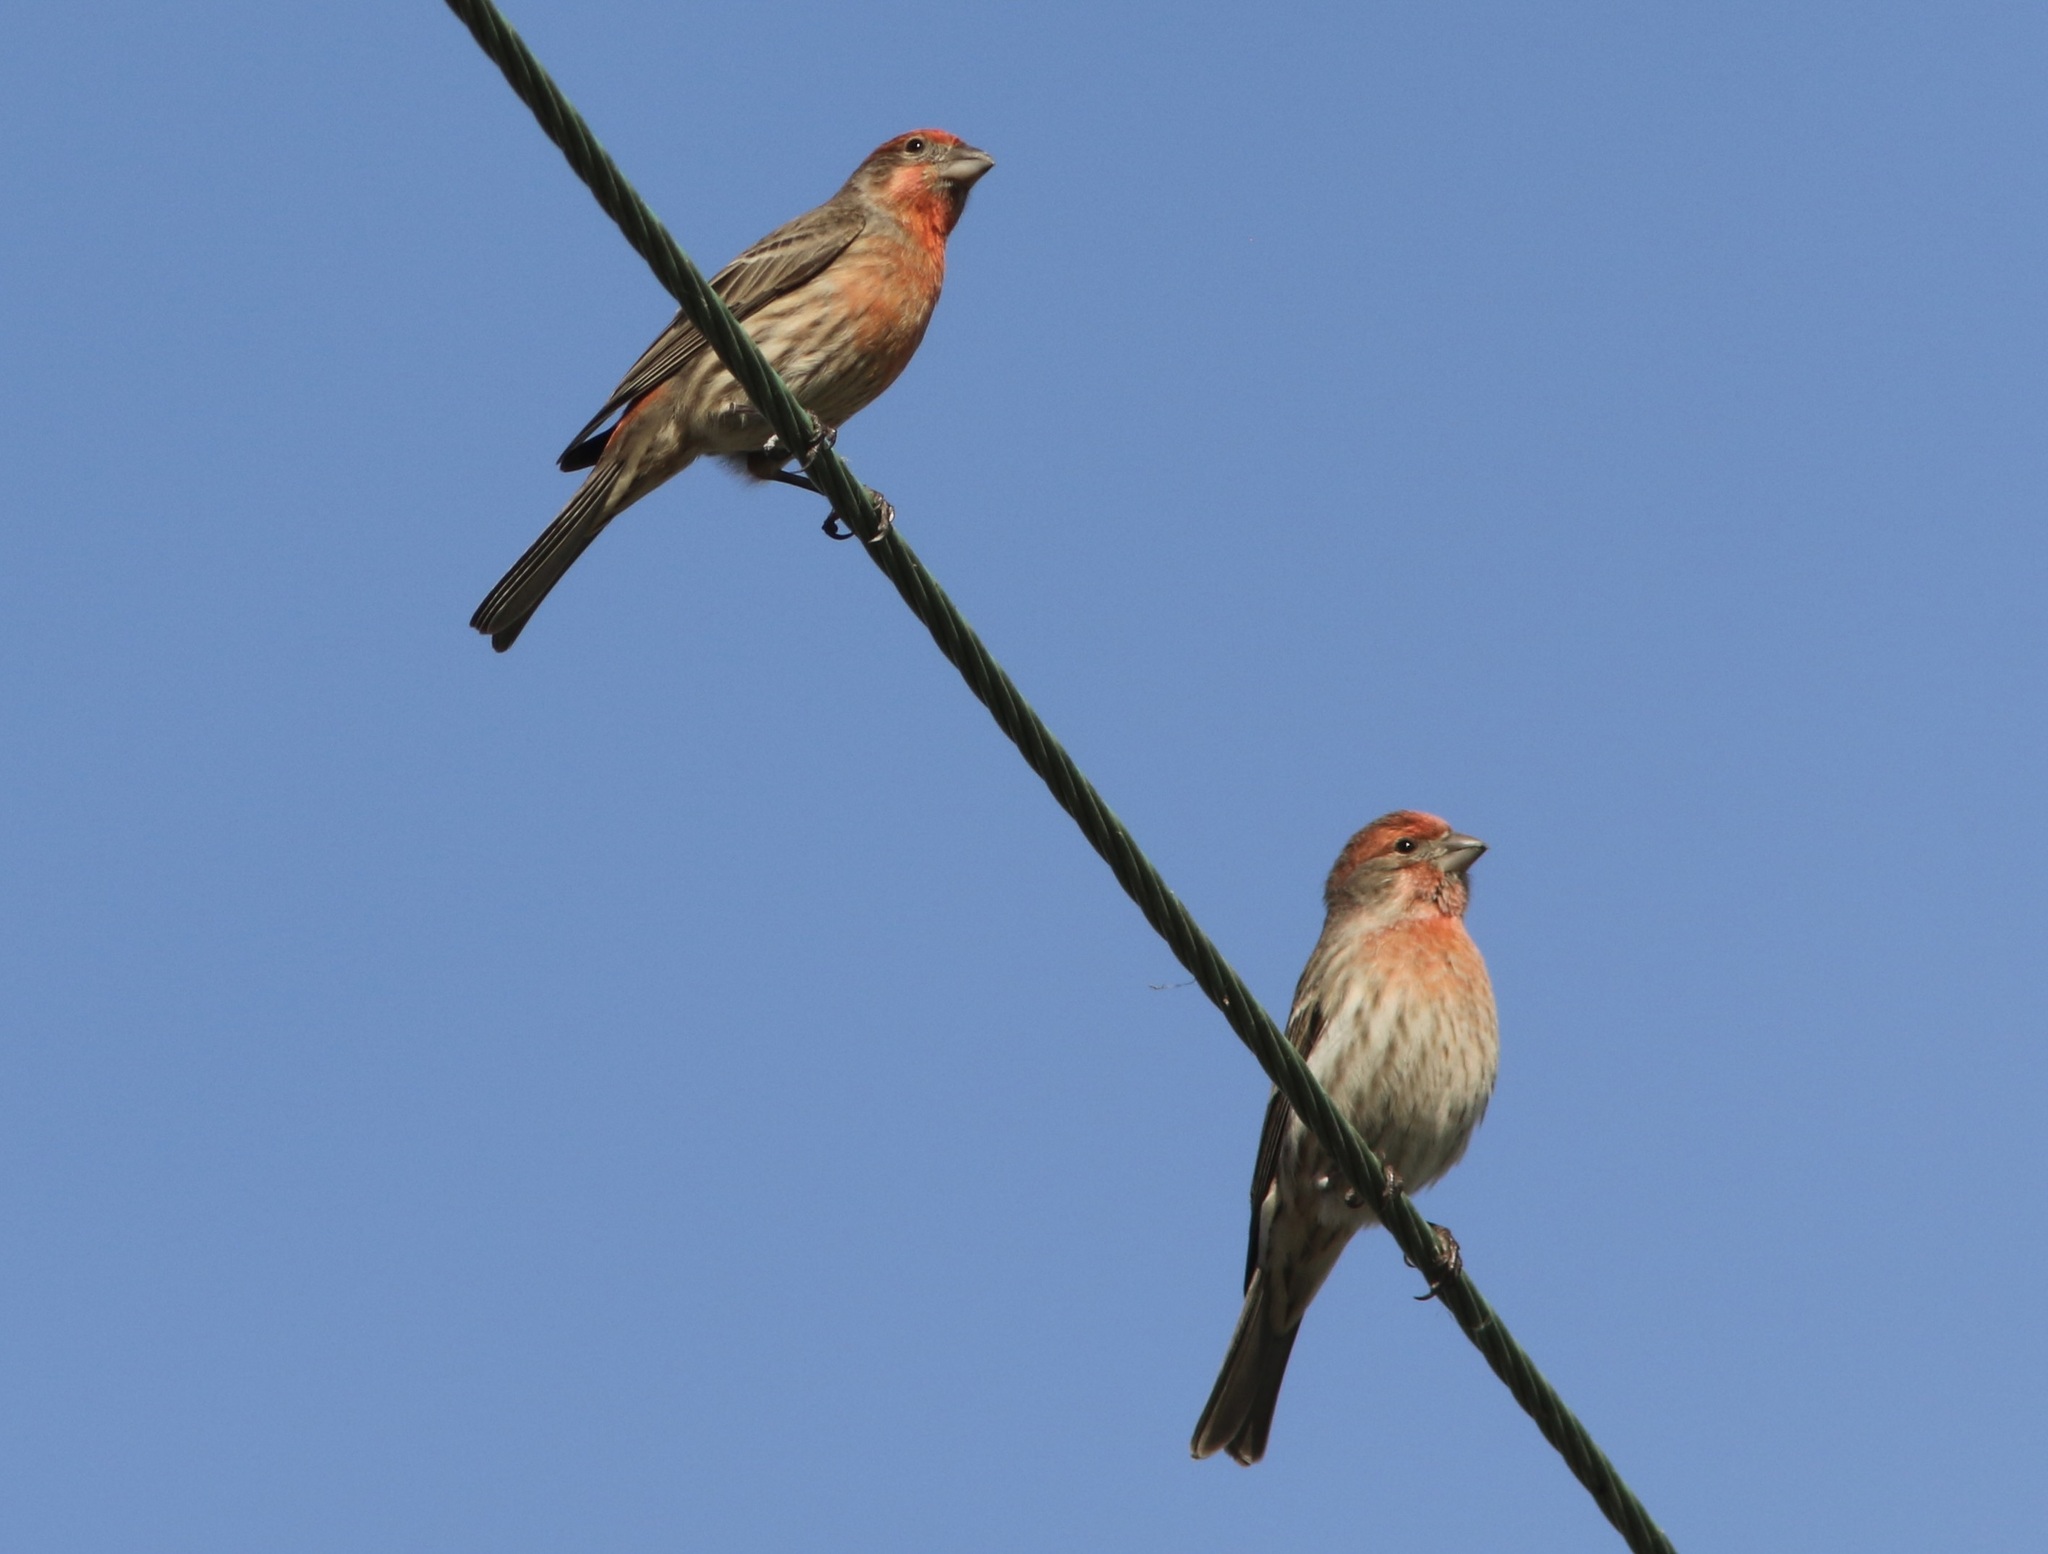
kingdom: Animalia
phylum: Chordata
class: Aves
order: Passeriformes
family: Fringillidae
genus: Haemorhous
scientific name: Haemorhous mexicanus
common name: House finch
